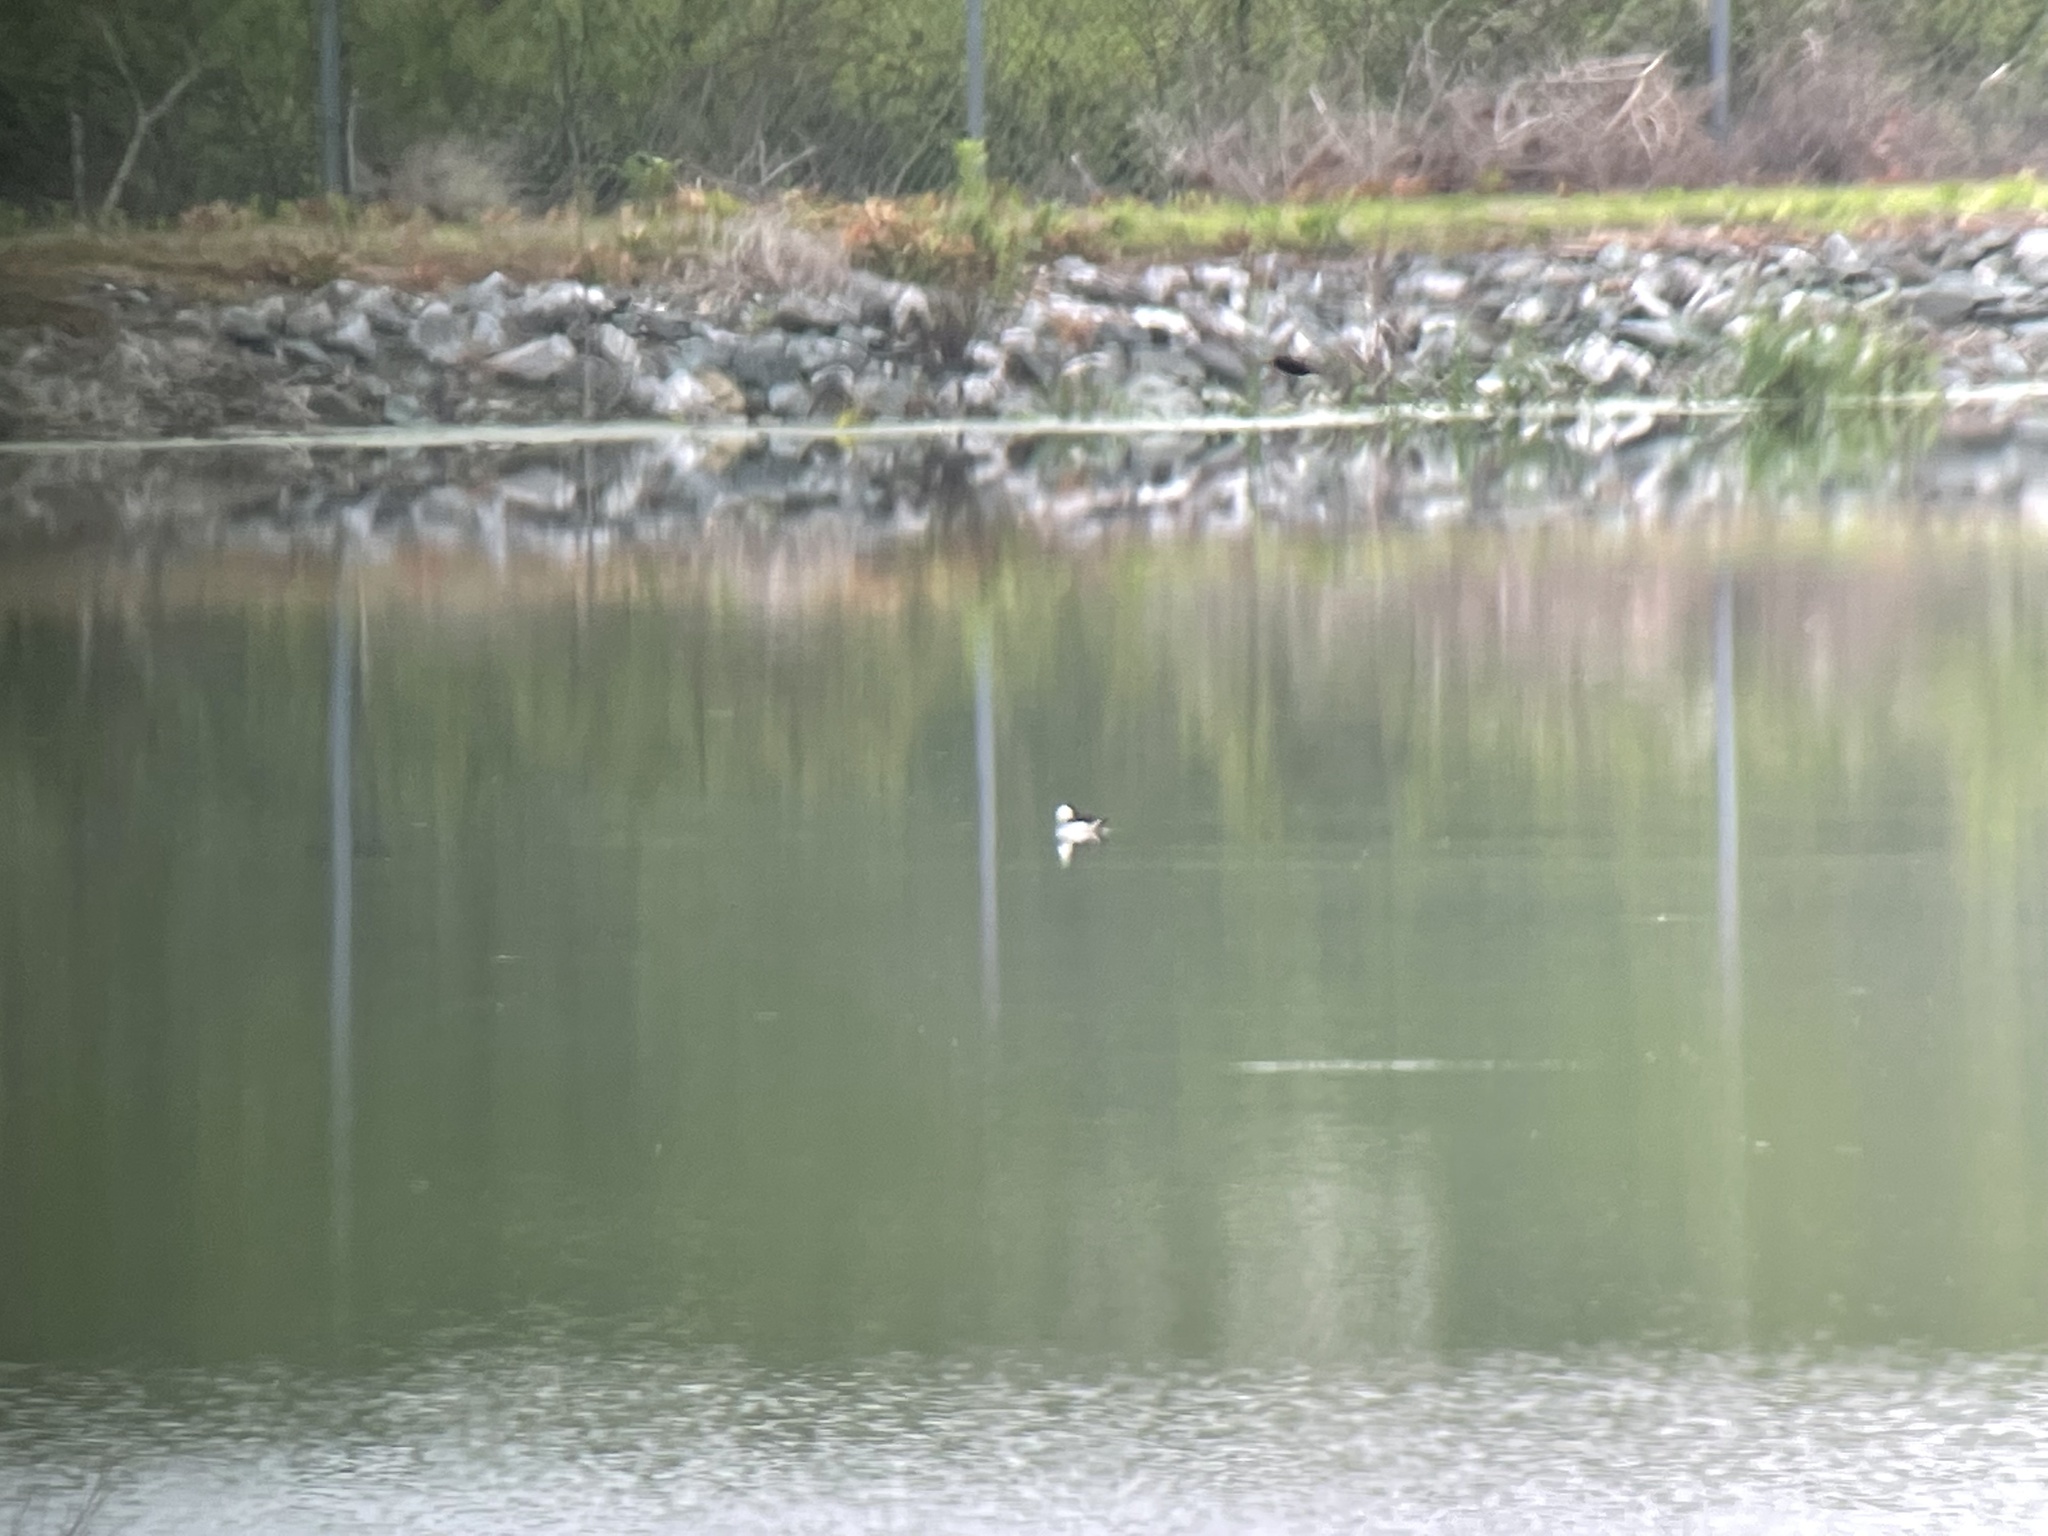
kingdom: Animalia
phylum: Chordata
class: Aves
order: Anseriformes
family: Anatidae
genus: Bucephala
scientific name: Bucephala albeola
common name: Bufflehead
